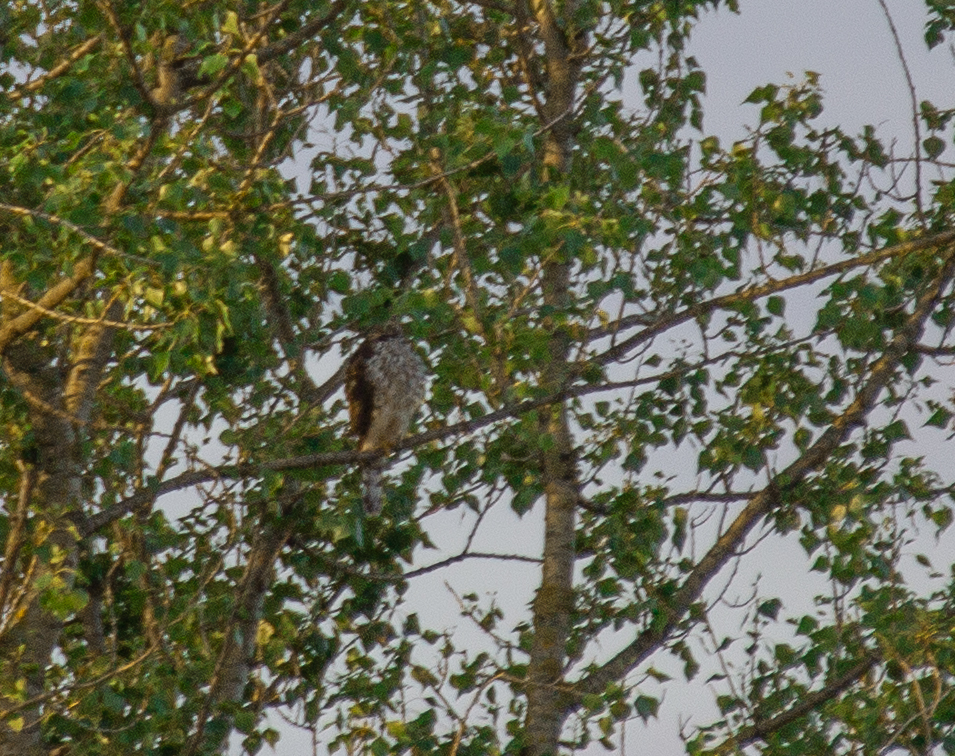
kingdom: Animalia
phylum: Chordata
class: Aves
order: Accipitriformes
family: Accipitridae
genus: Accipiter
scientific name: Accipiter gentilis
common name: Northern goshawk
